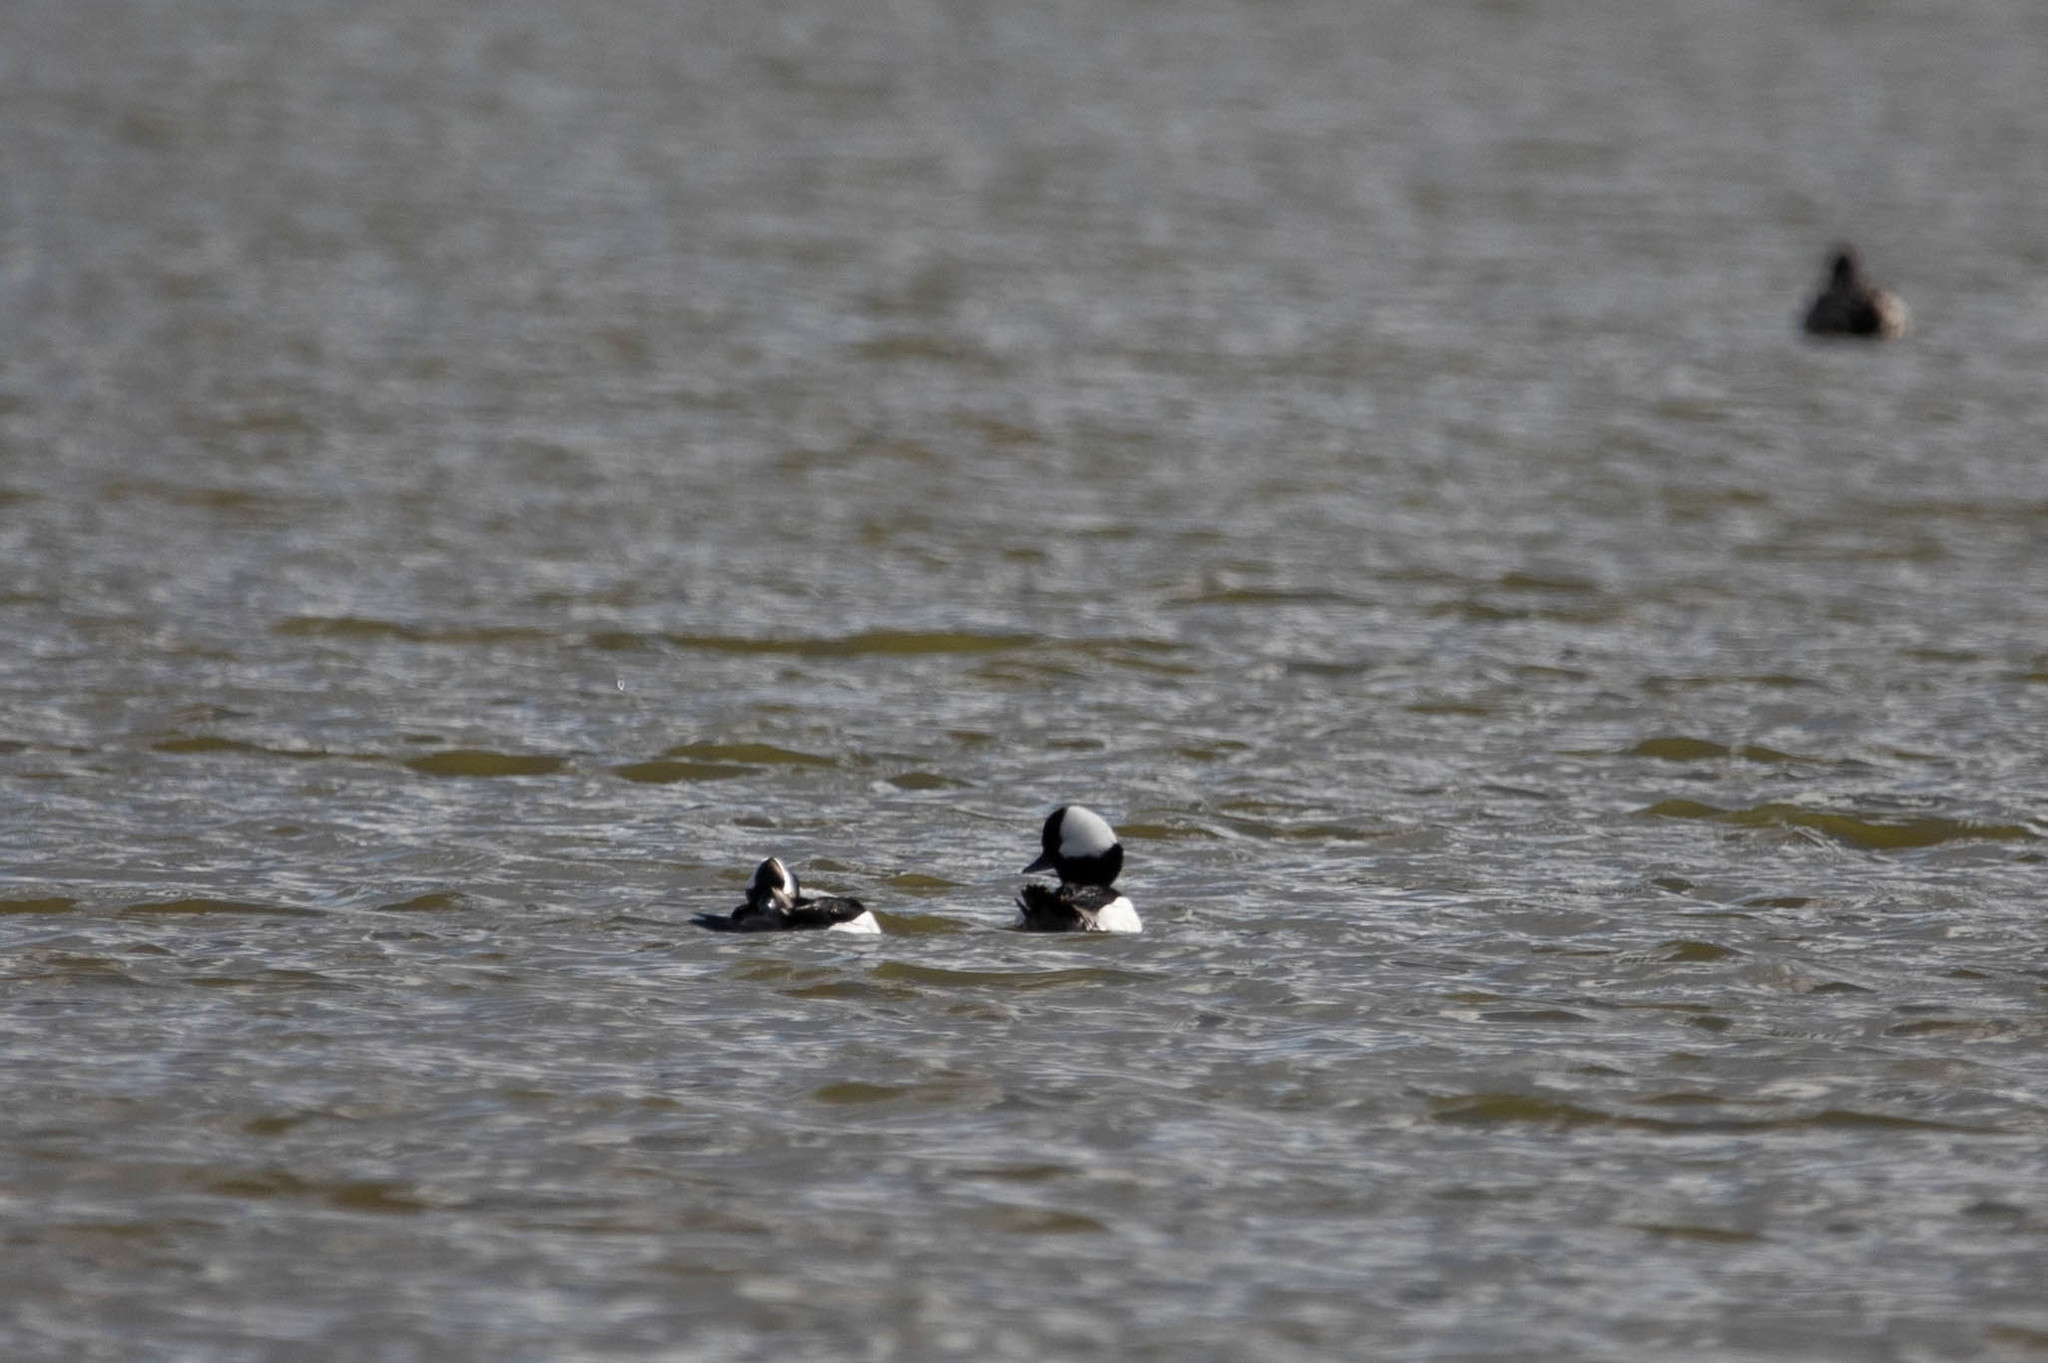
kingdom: Animalia
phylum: Chordata
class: Aves
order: Anseriformes
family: Anatidae
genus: Bucephala
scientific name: Bucephala albeola
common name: Bufflehead
